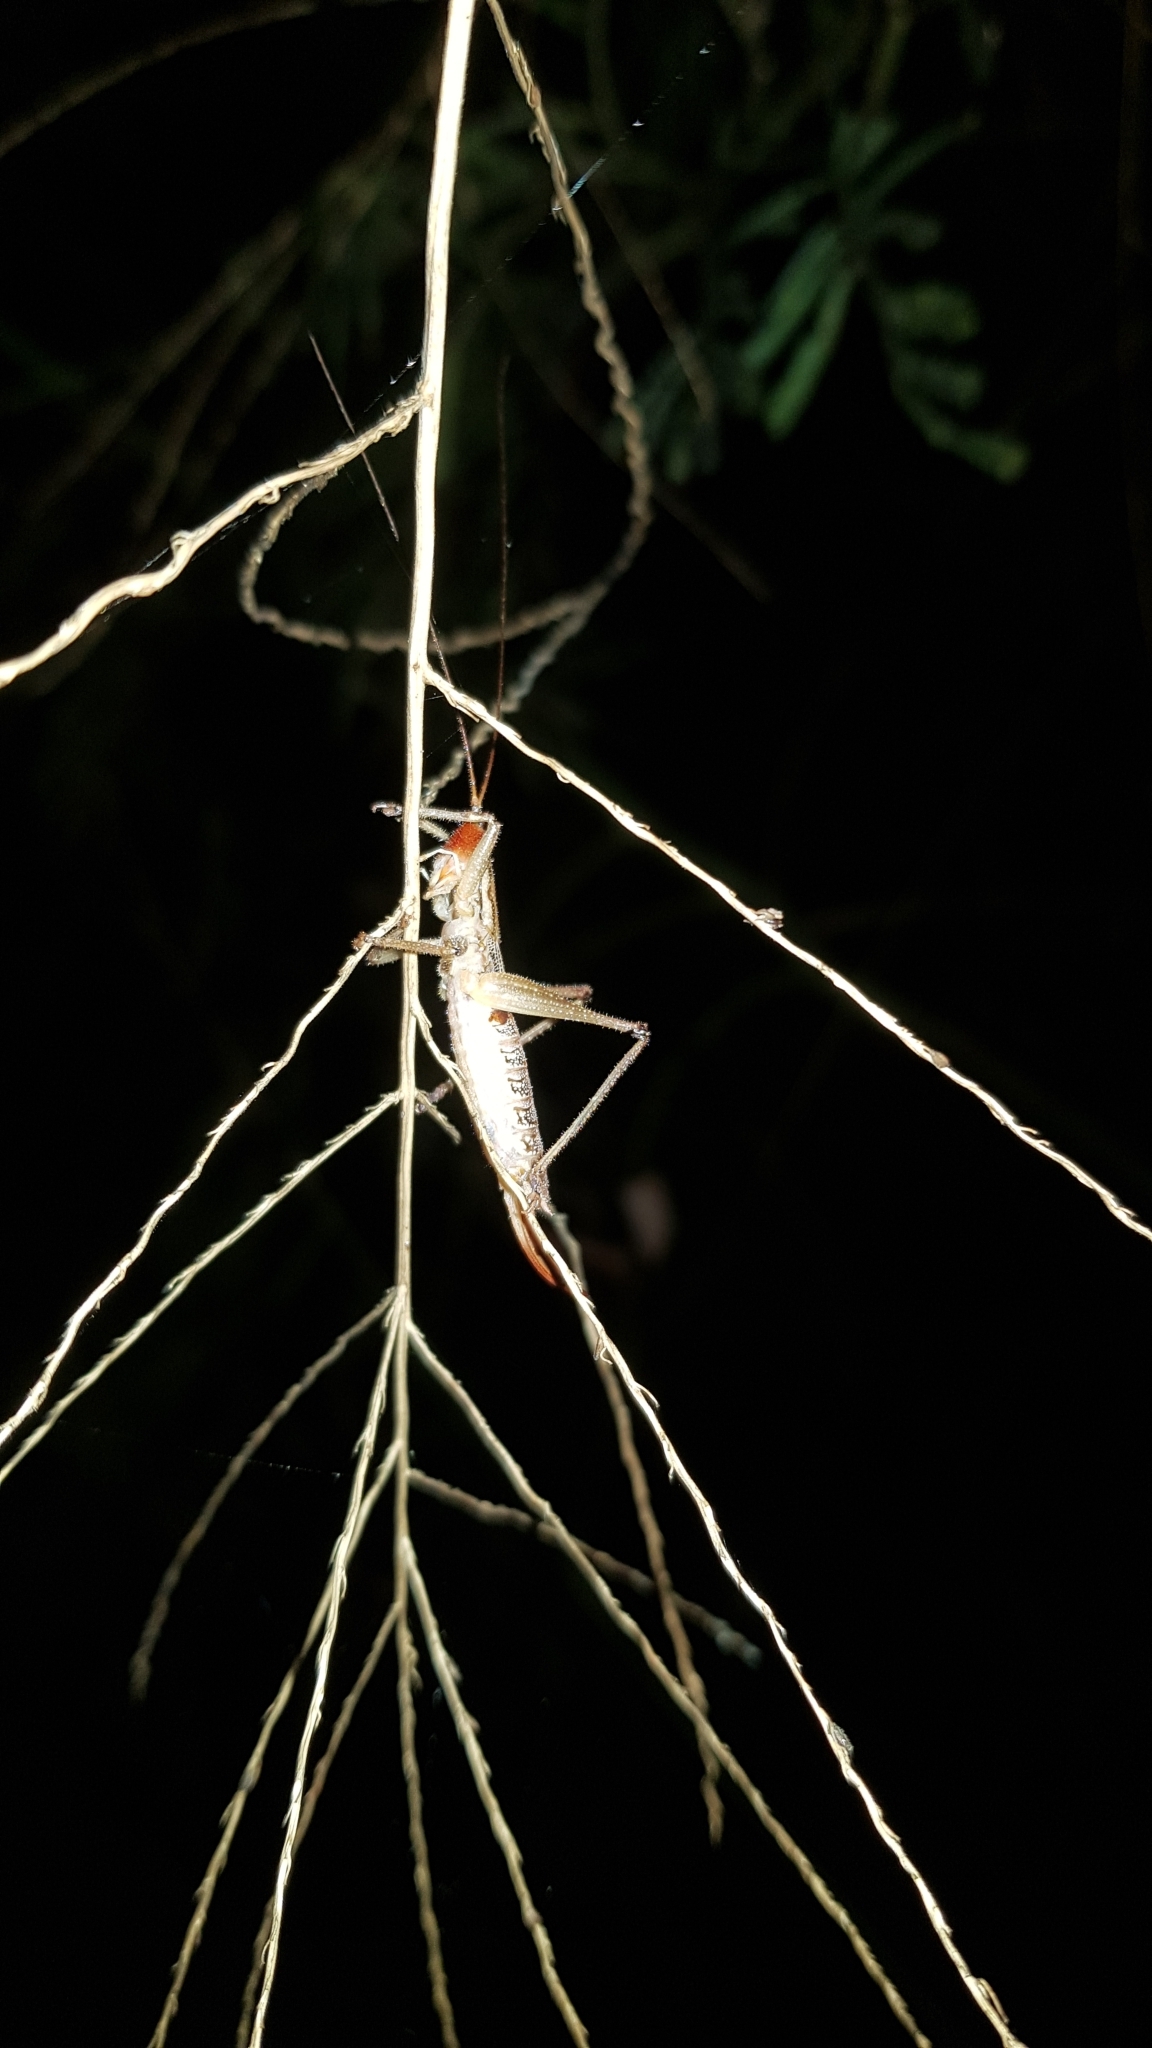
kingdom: Animalia
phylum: Arthropoda
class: Insecta
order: Orthoptera
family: Tettigoniidae
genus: Coptaspis
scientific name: Coptaspis brevipennis
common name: Sidney woodland katydid
